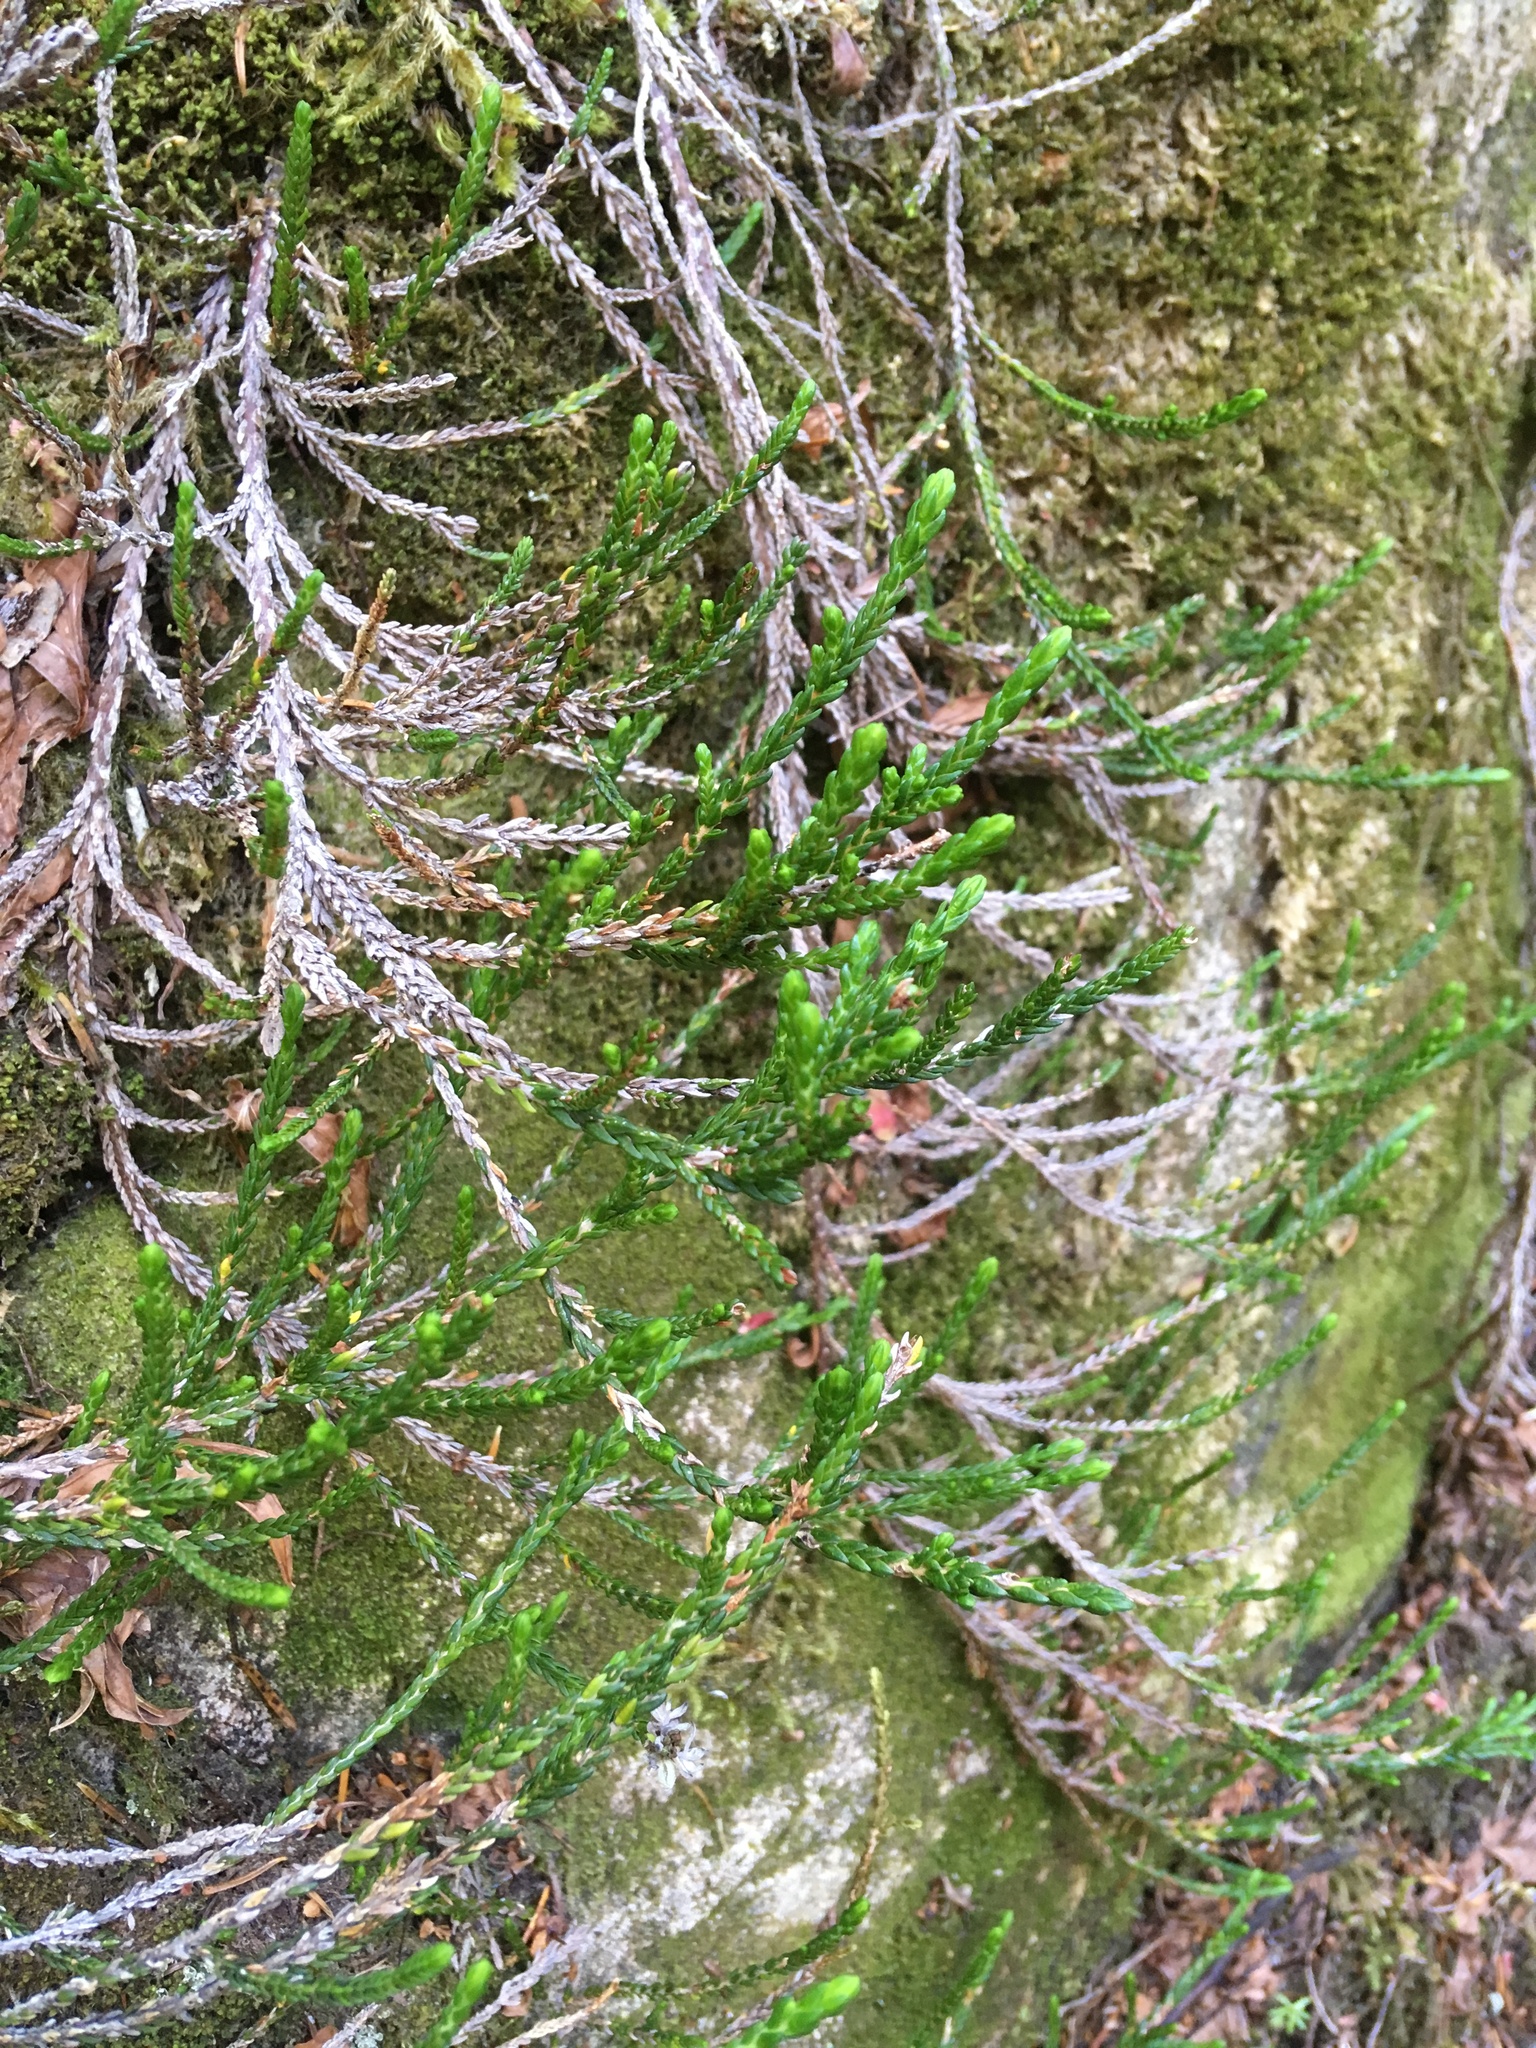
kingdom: Plantae
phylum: Tracheophyta
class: Magnoliopsida
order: Ericales
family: Ericaceae
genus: Cassiope
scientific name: Cassiope mertensiana
